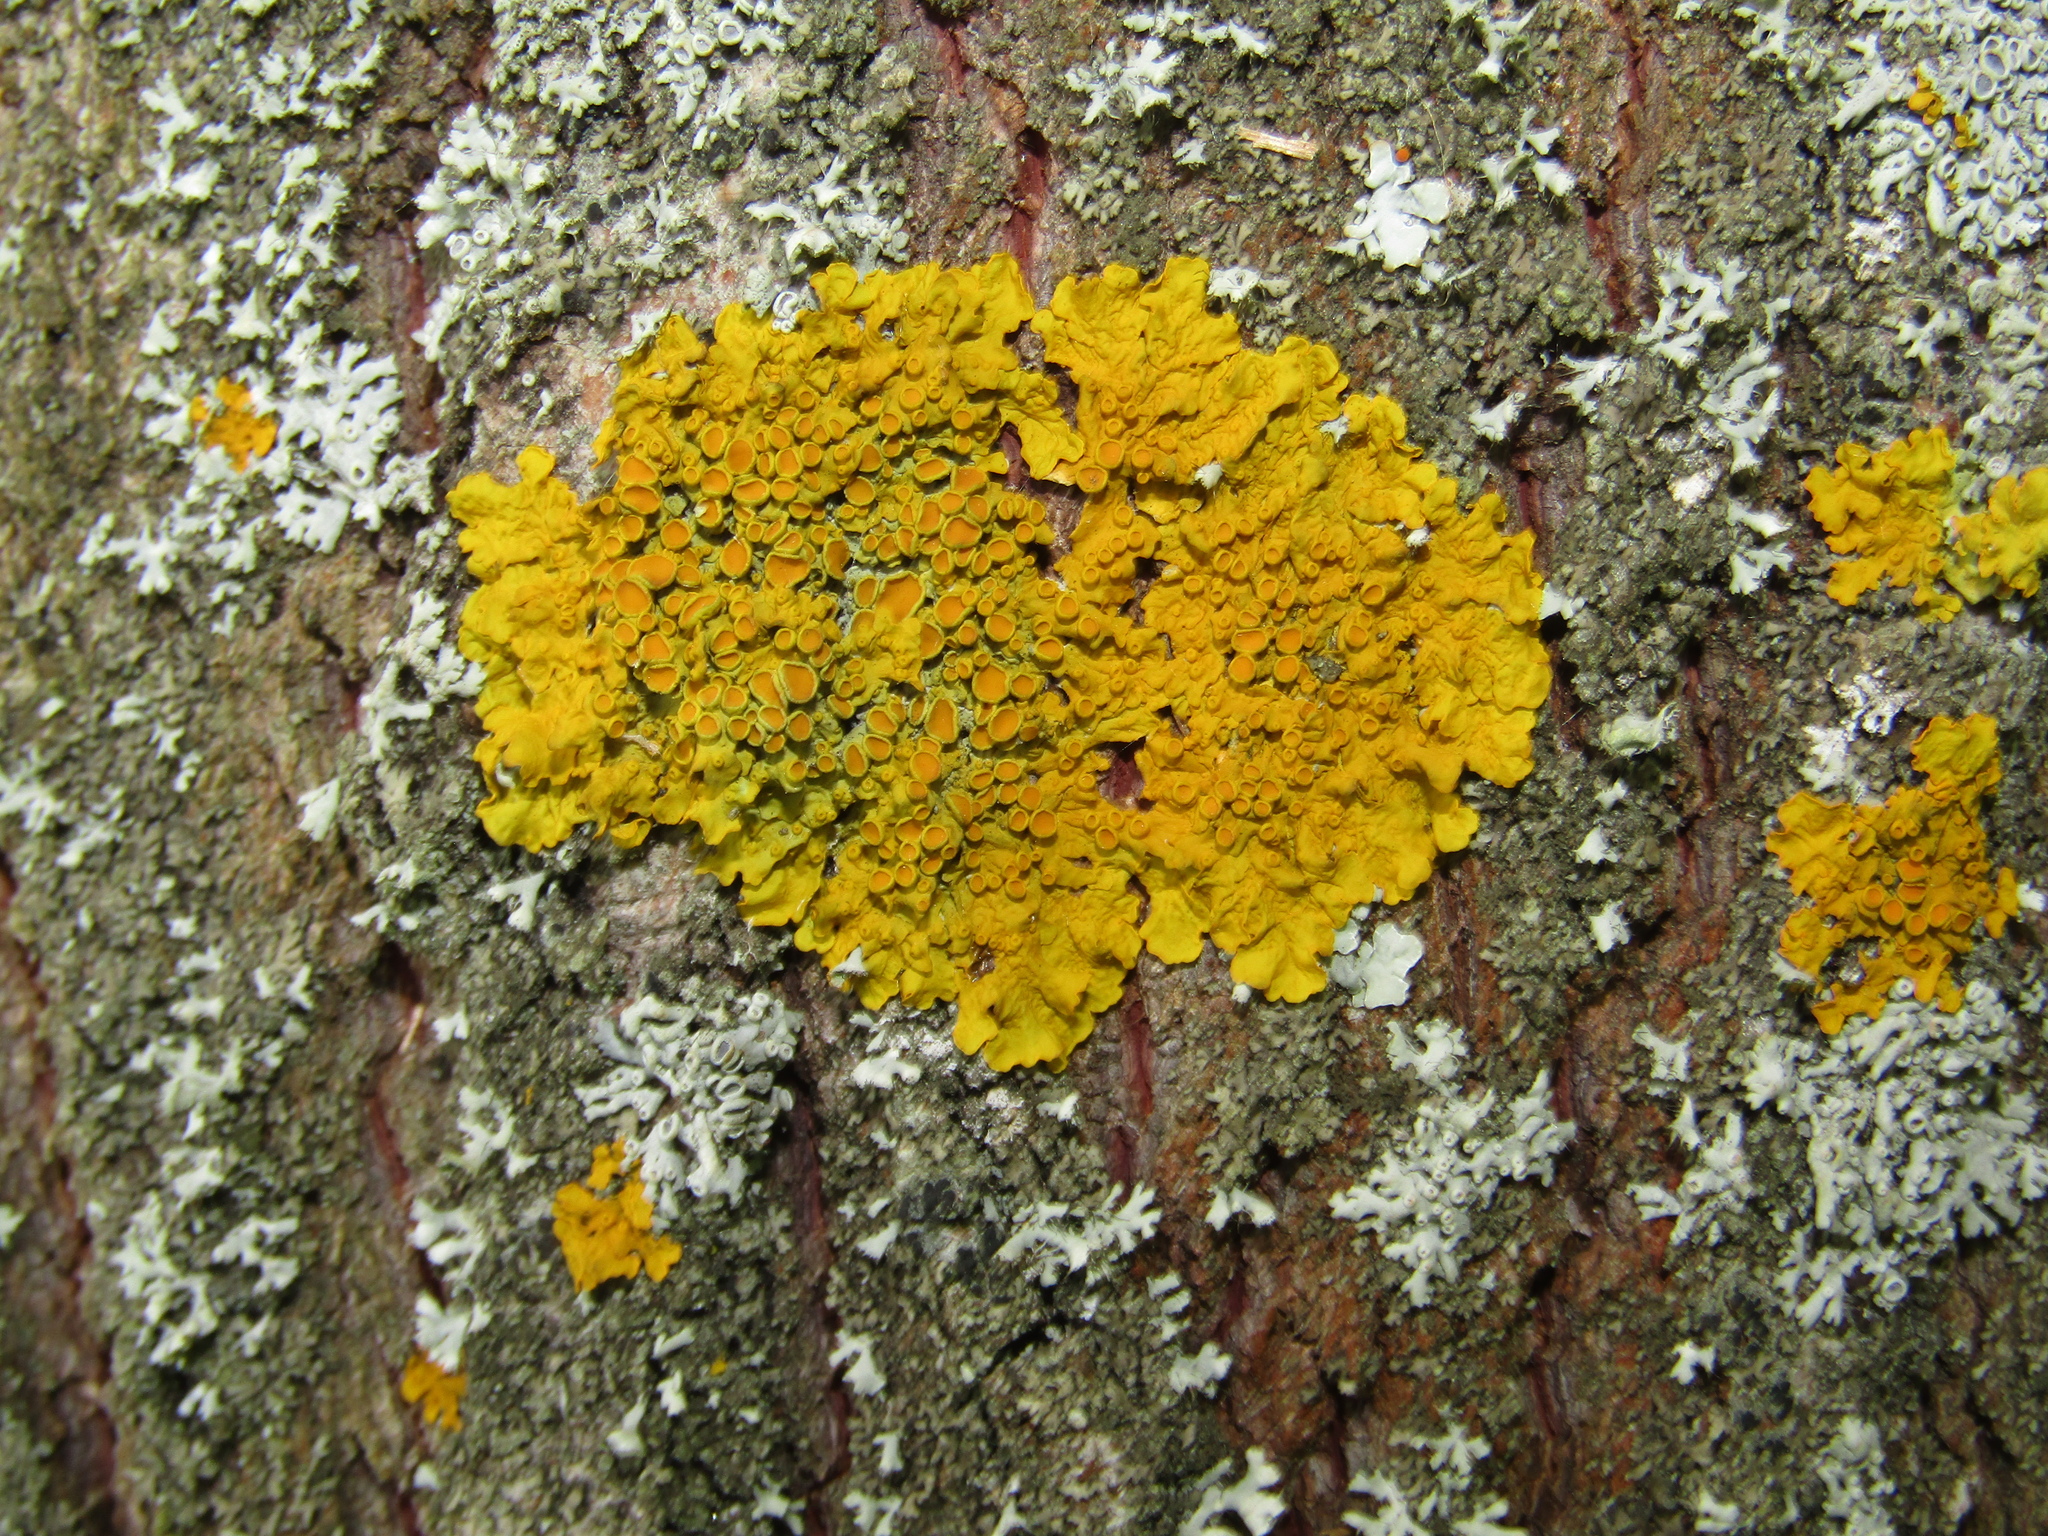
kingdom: Fungi
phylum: Ascomycota
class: Lecanoromycetes
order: Teloschistales
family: Teloschistaceae
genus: Xanthoria
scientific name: Xanthoria parietina
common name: Common orange lichen
